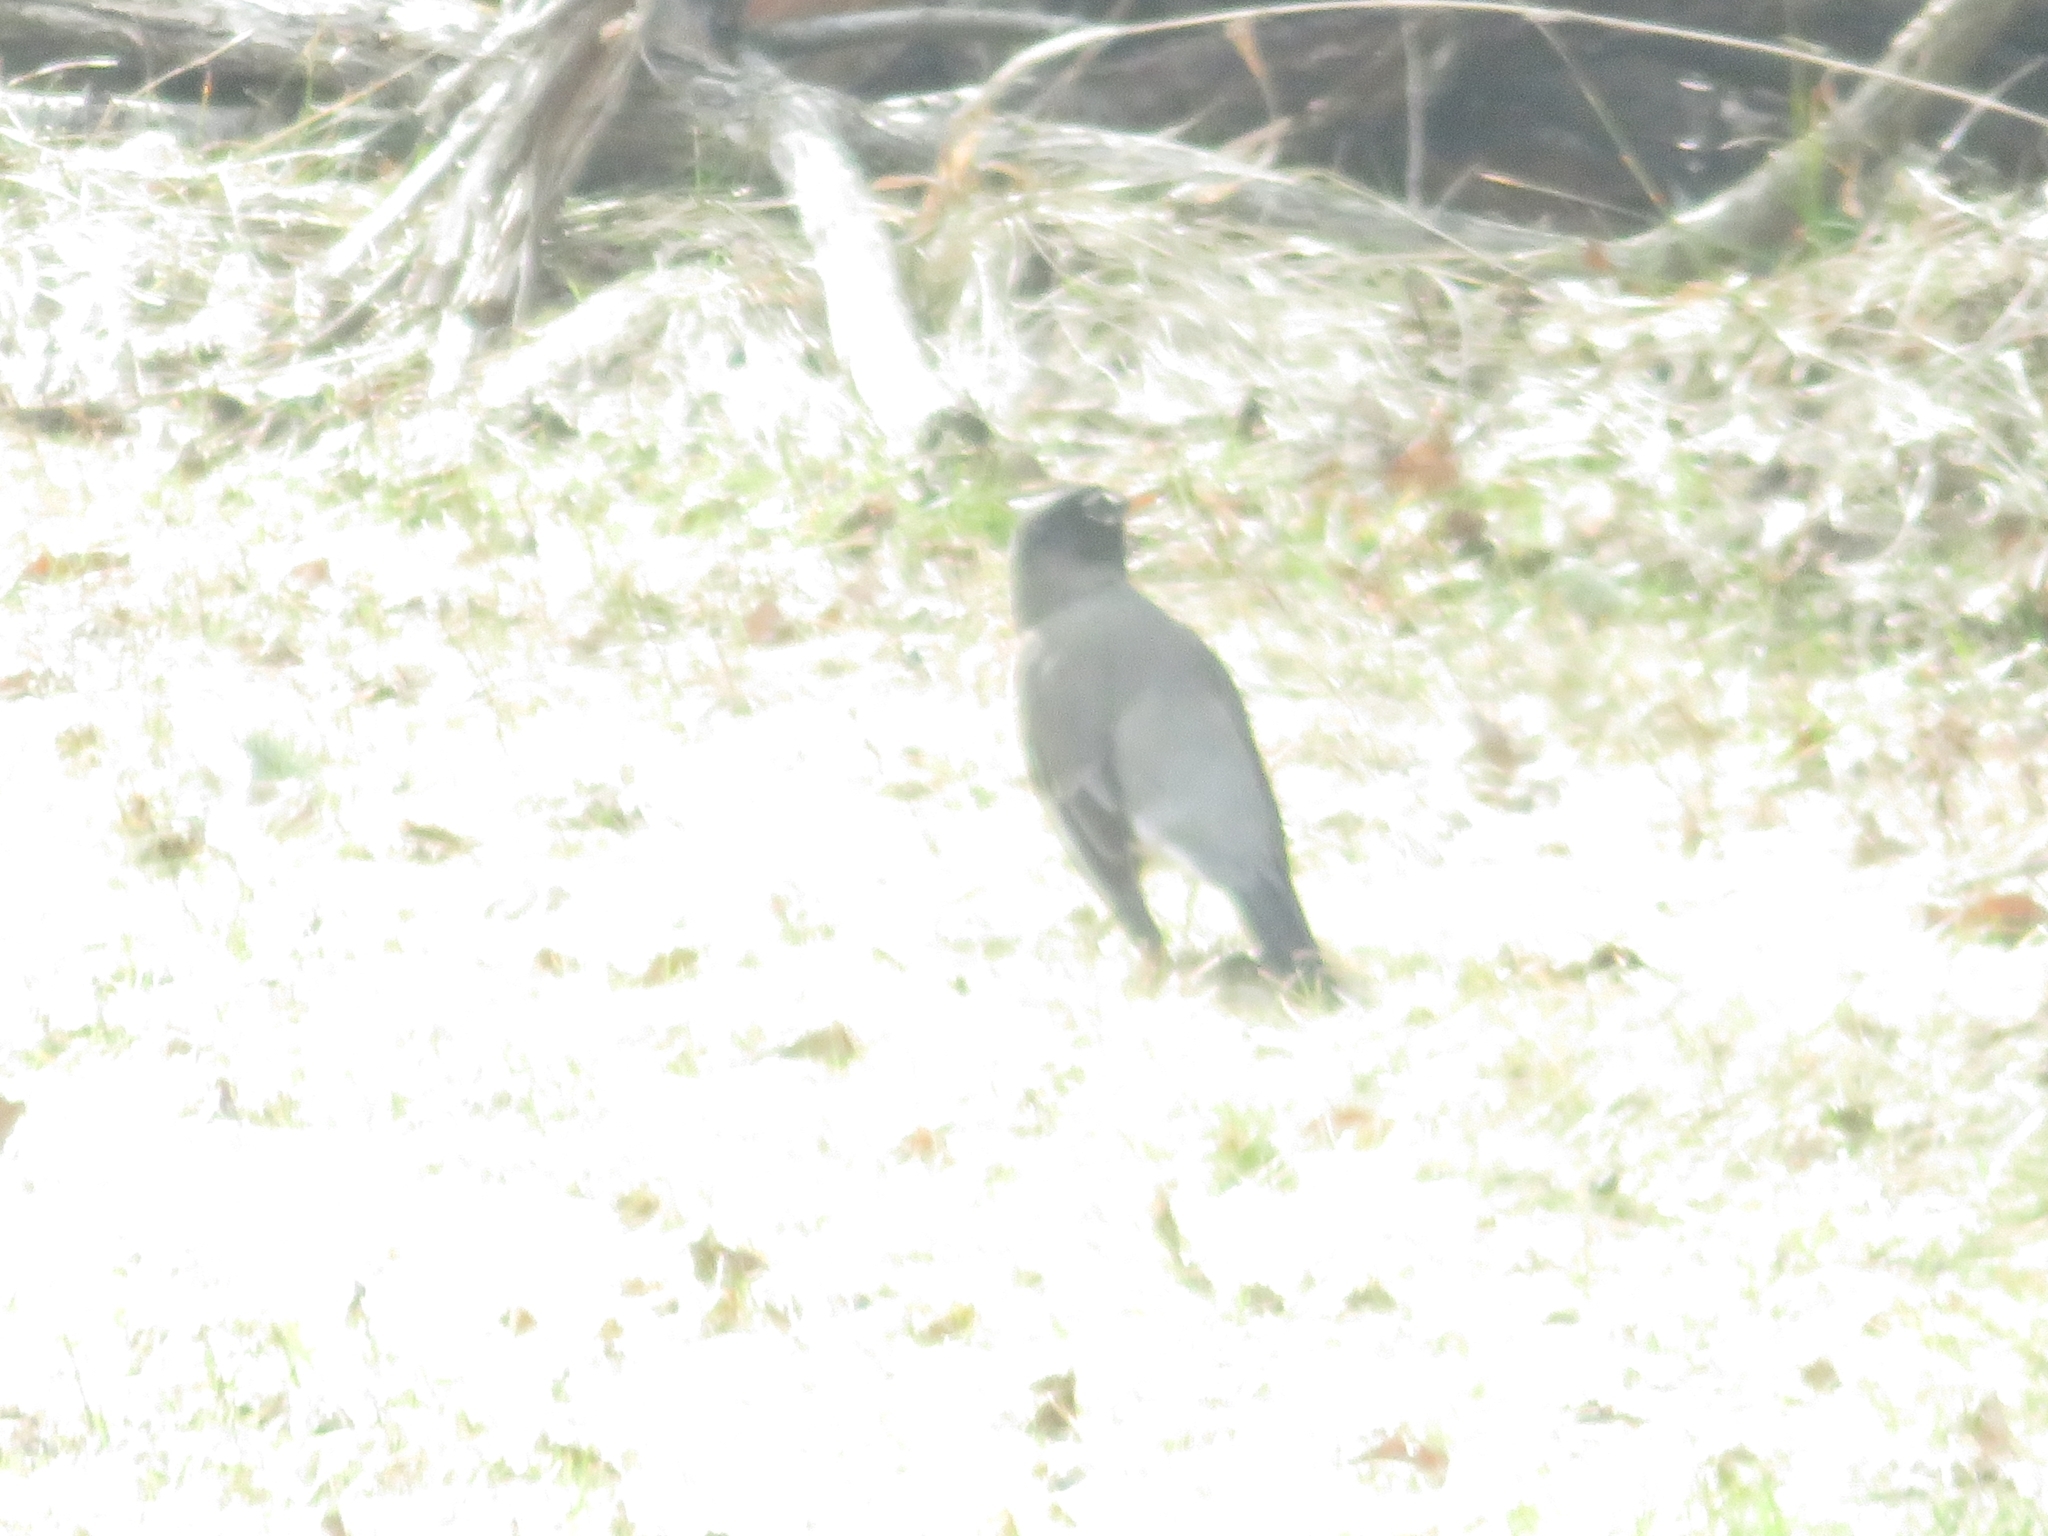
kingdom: Animalia
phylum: Chordata
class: Aves
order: Passeriformes
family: Turdidae
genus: Turdus
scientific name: Turdus migratorius
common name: American robin
